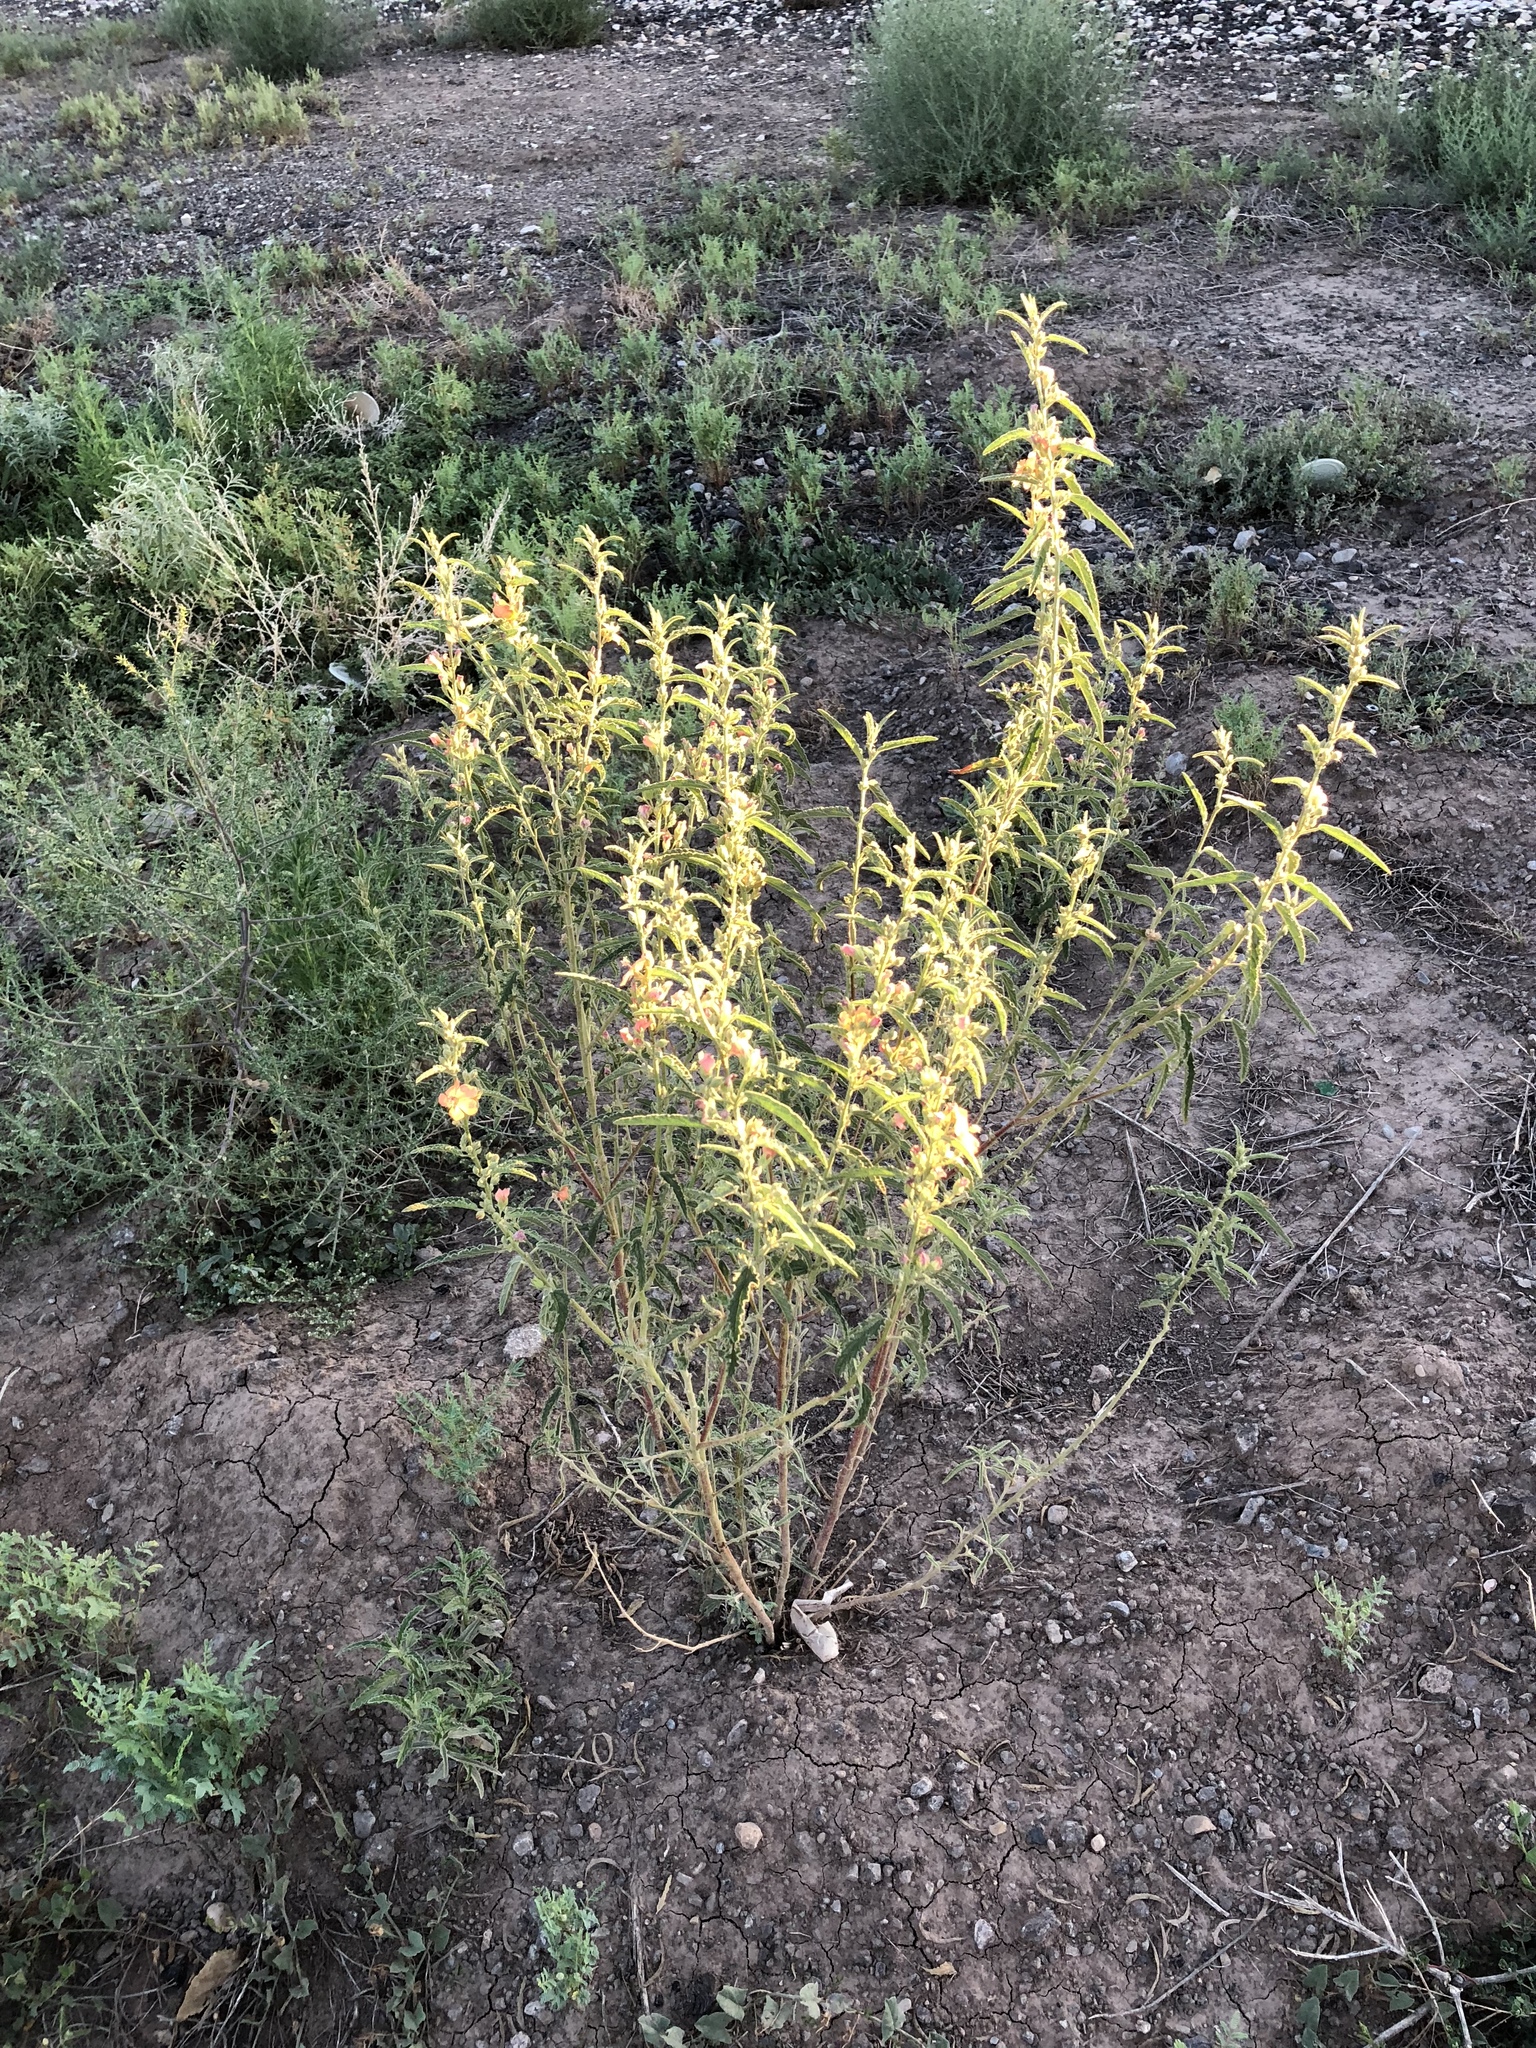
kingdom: Plantae
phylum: Tracheophyta
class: Magnoliopsida
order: Malvales
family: Malvaceae
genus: Sphaeralcea
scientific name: Sphaeralcea angustifolia
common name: Copper globe-mallow
